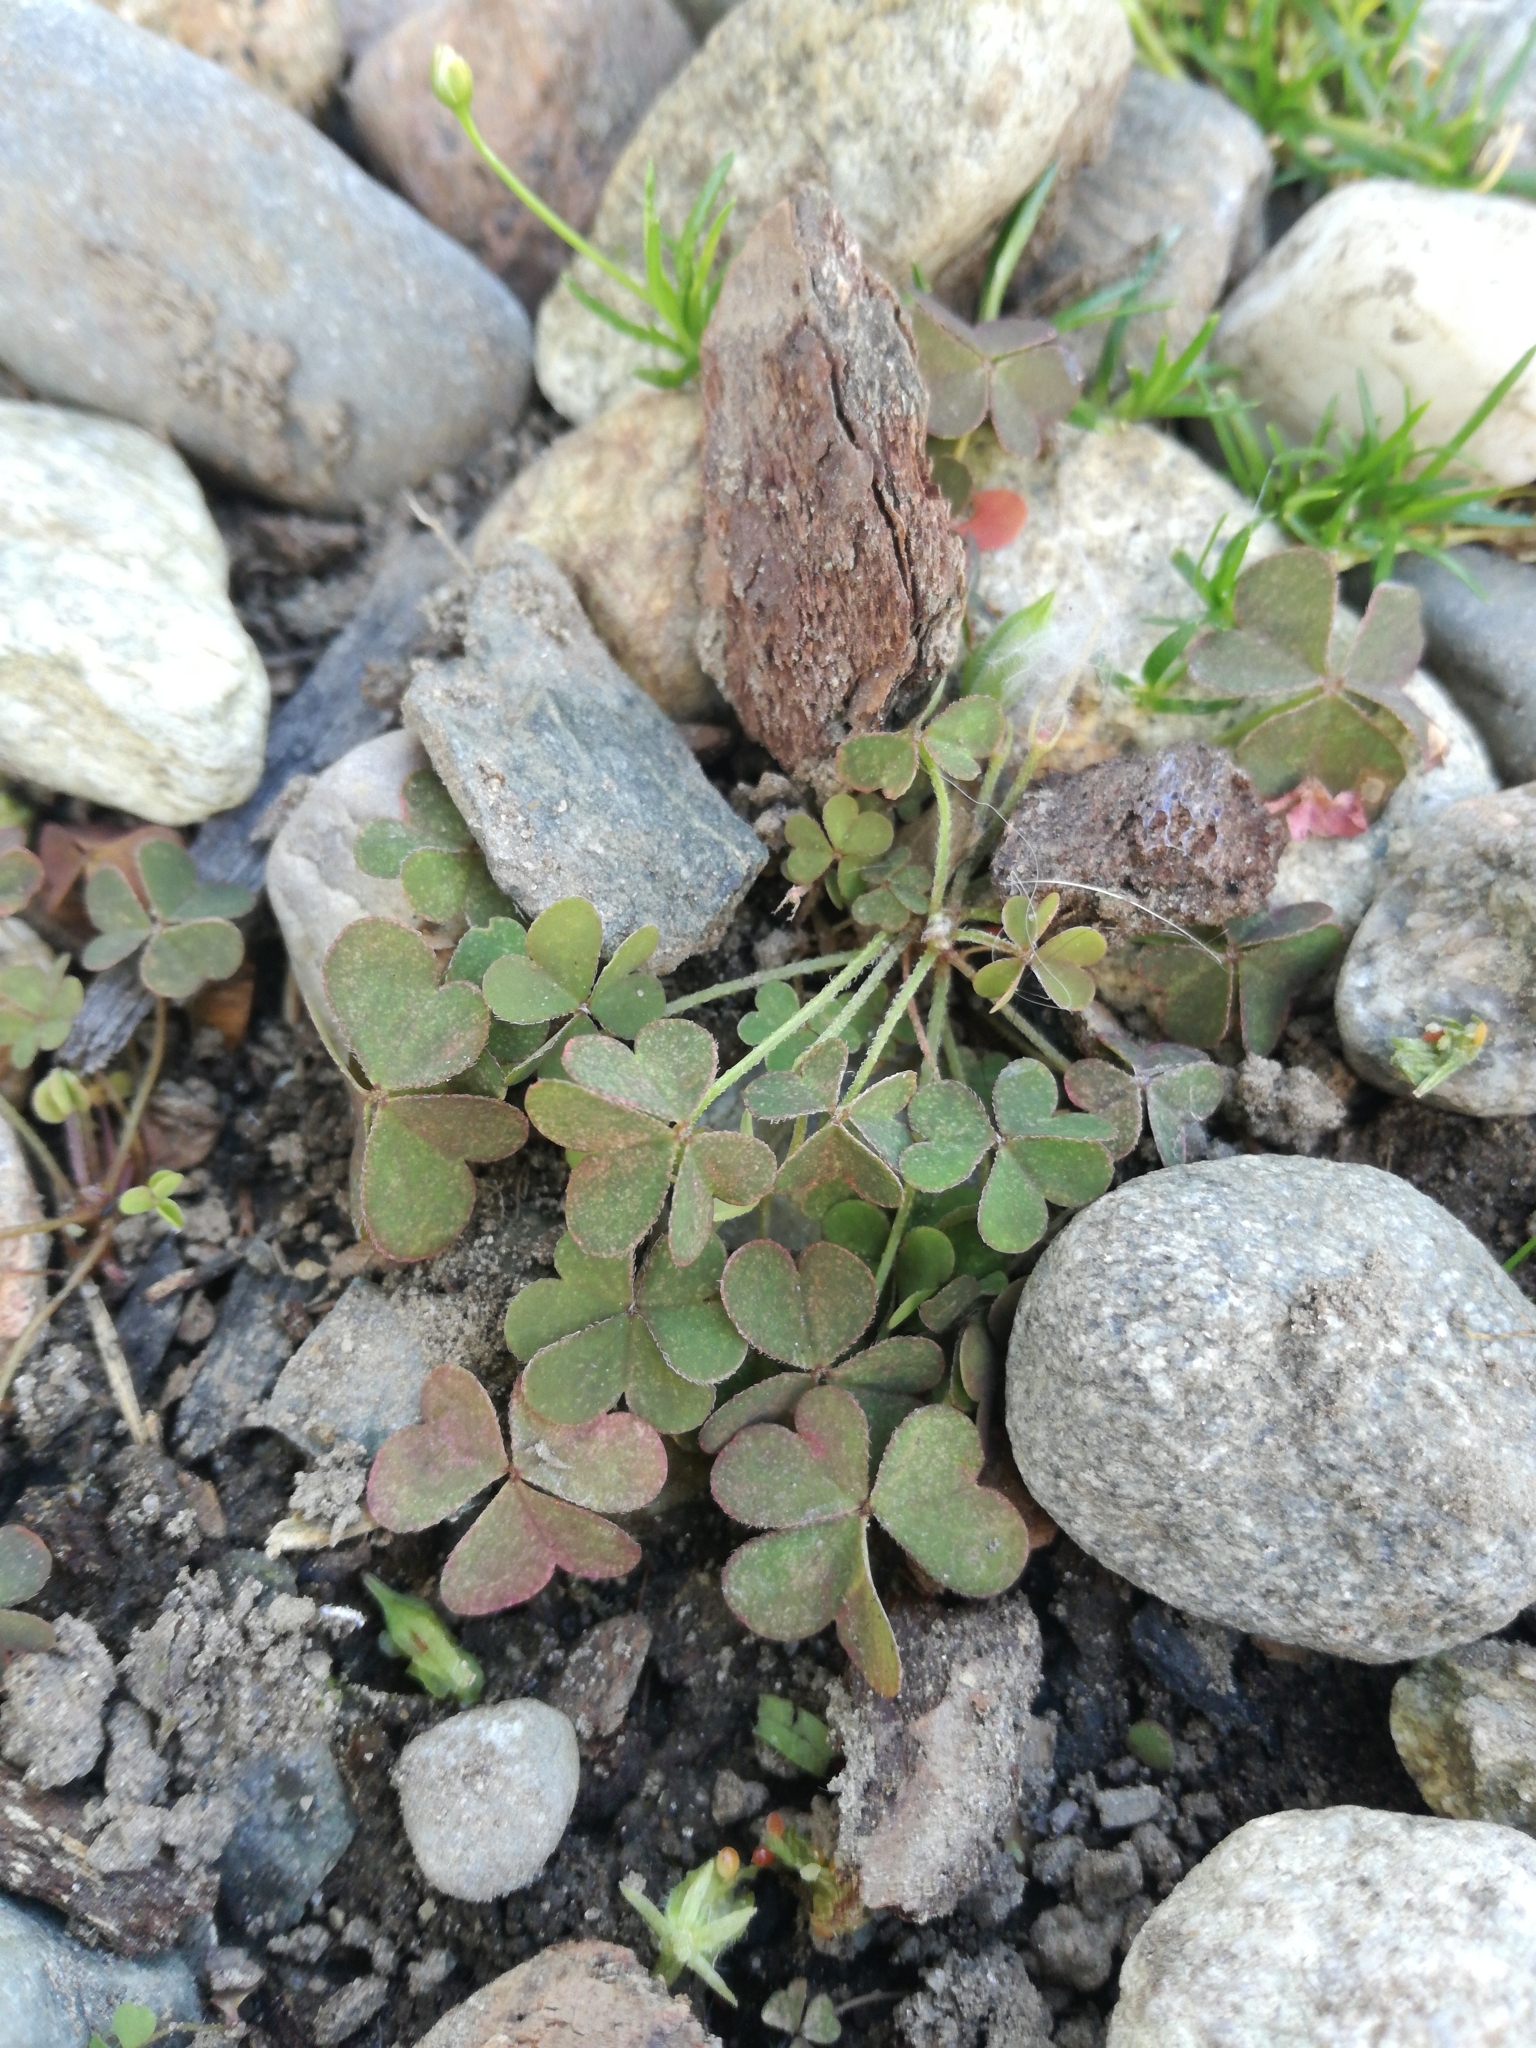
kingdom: Plantae
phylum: Tracheophyta
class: Magnoliopsida
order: Oxalidales
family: Oxalidaceae
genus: Oxalis
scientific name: Oxalis corniculata
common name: Procumbent yellow-sorrel
